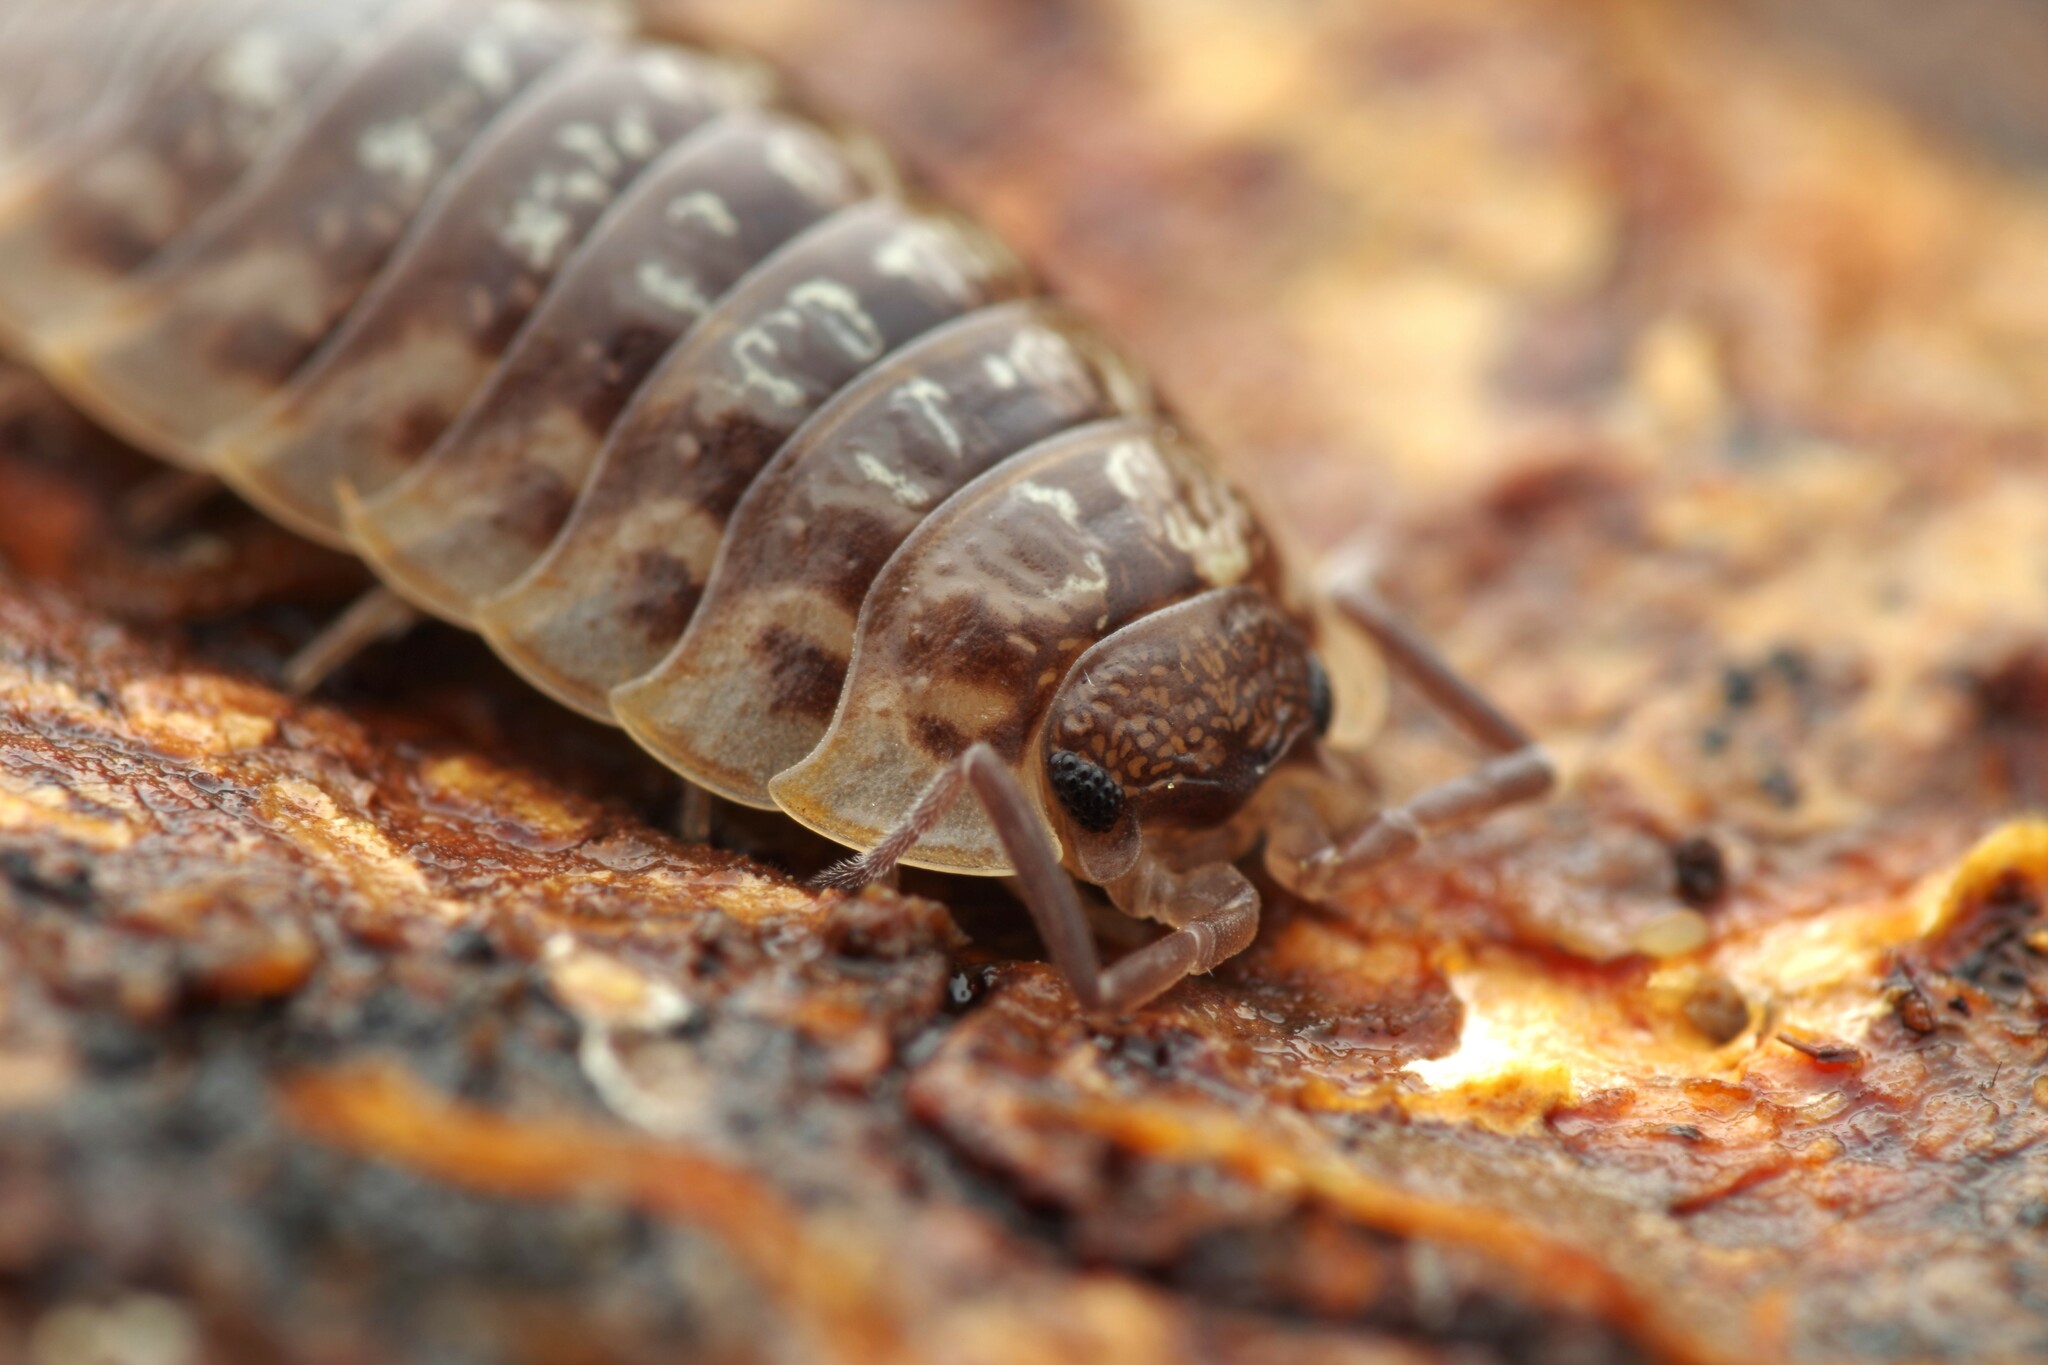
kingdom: Animalia
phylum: Arthropoda
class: Malacostraca
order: Isopoda
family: Oniscidae
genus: Oniscus
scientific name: Oniscus asellus
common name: Common shiny woodlouse
